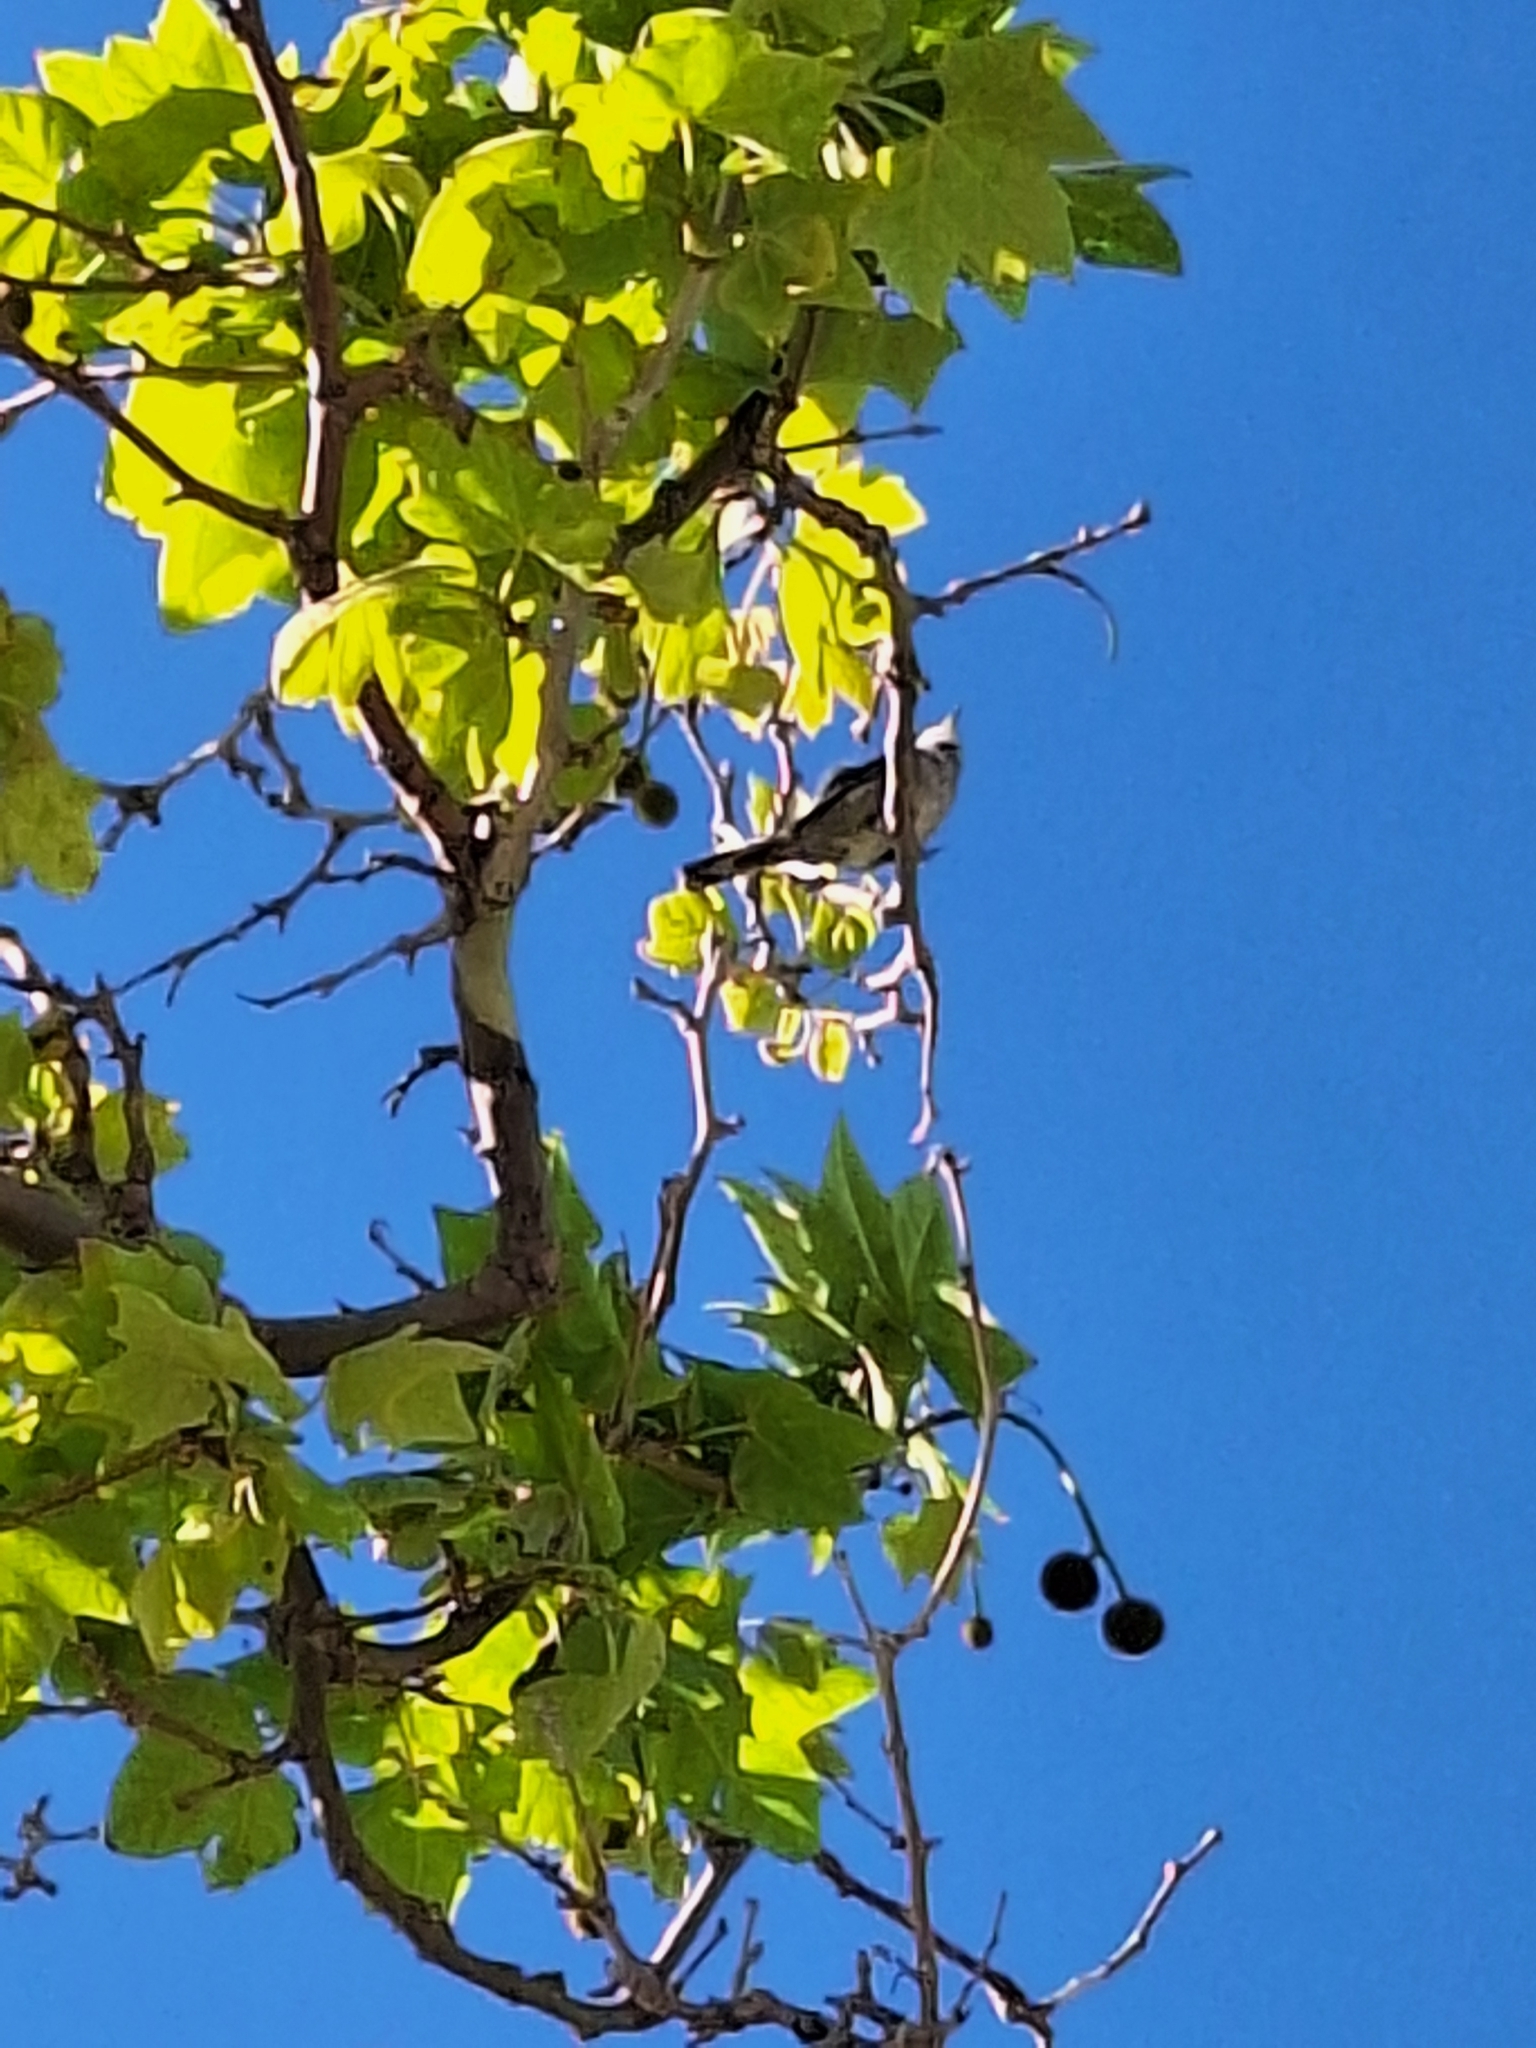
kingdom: Animalia
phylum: Chordata
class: Aves
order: Passeriformes
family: Sylviidae
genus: Curruca
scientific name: Curruca melanocephala
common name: Sardinian warbler
